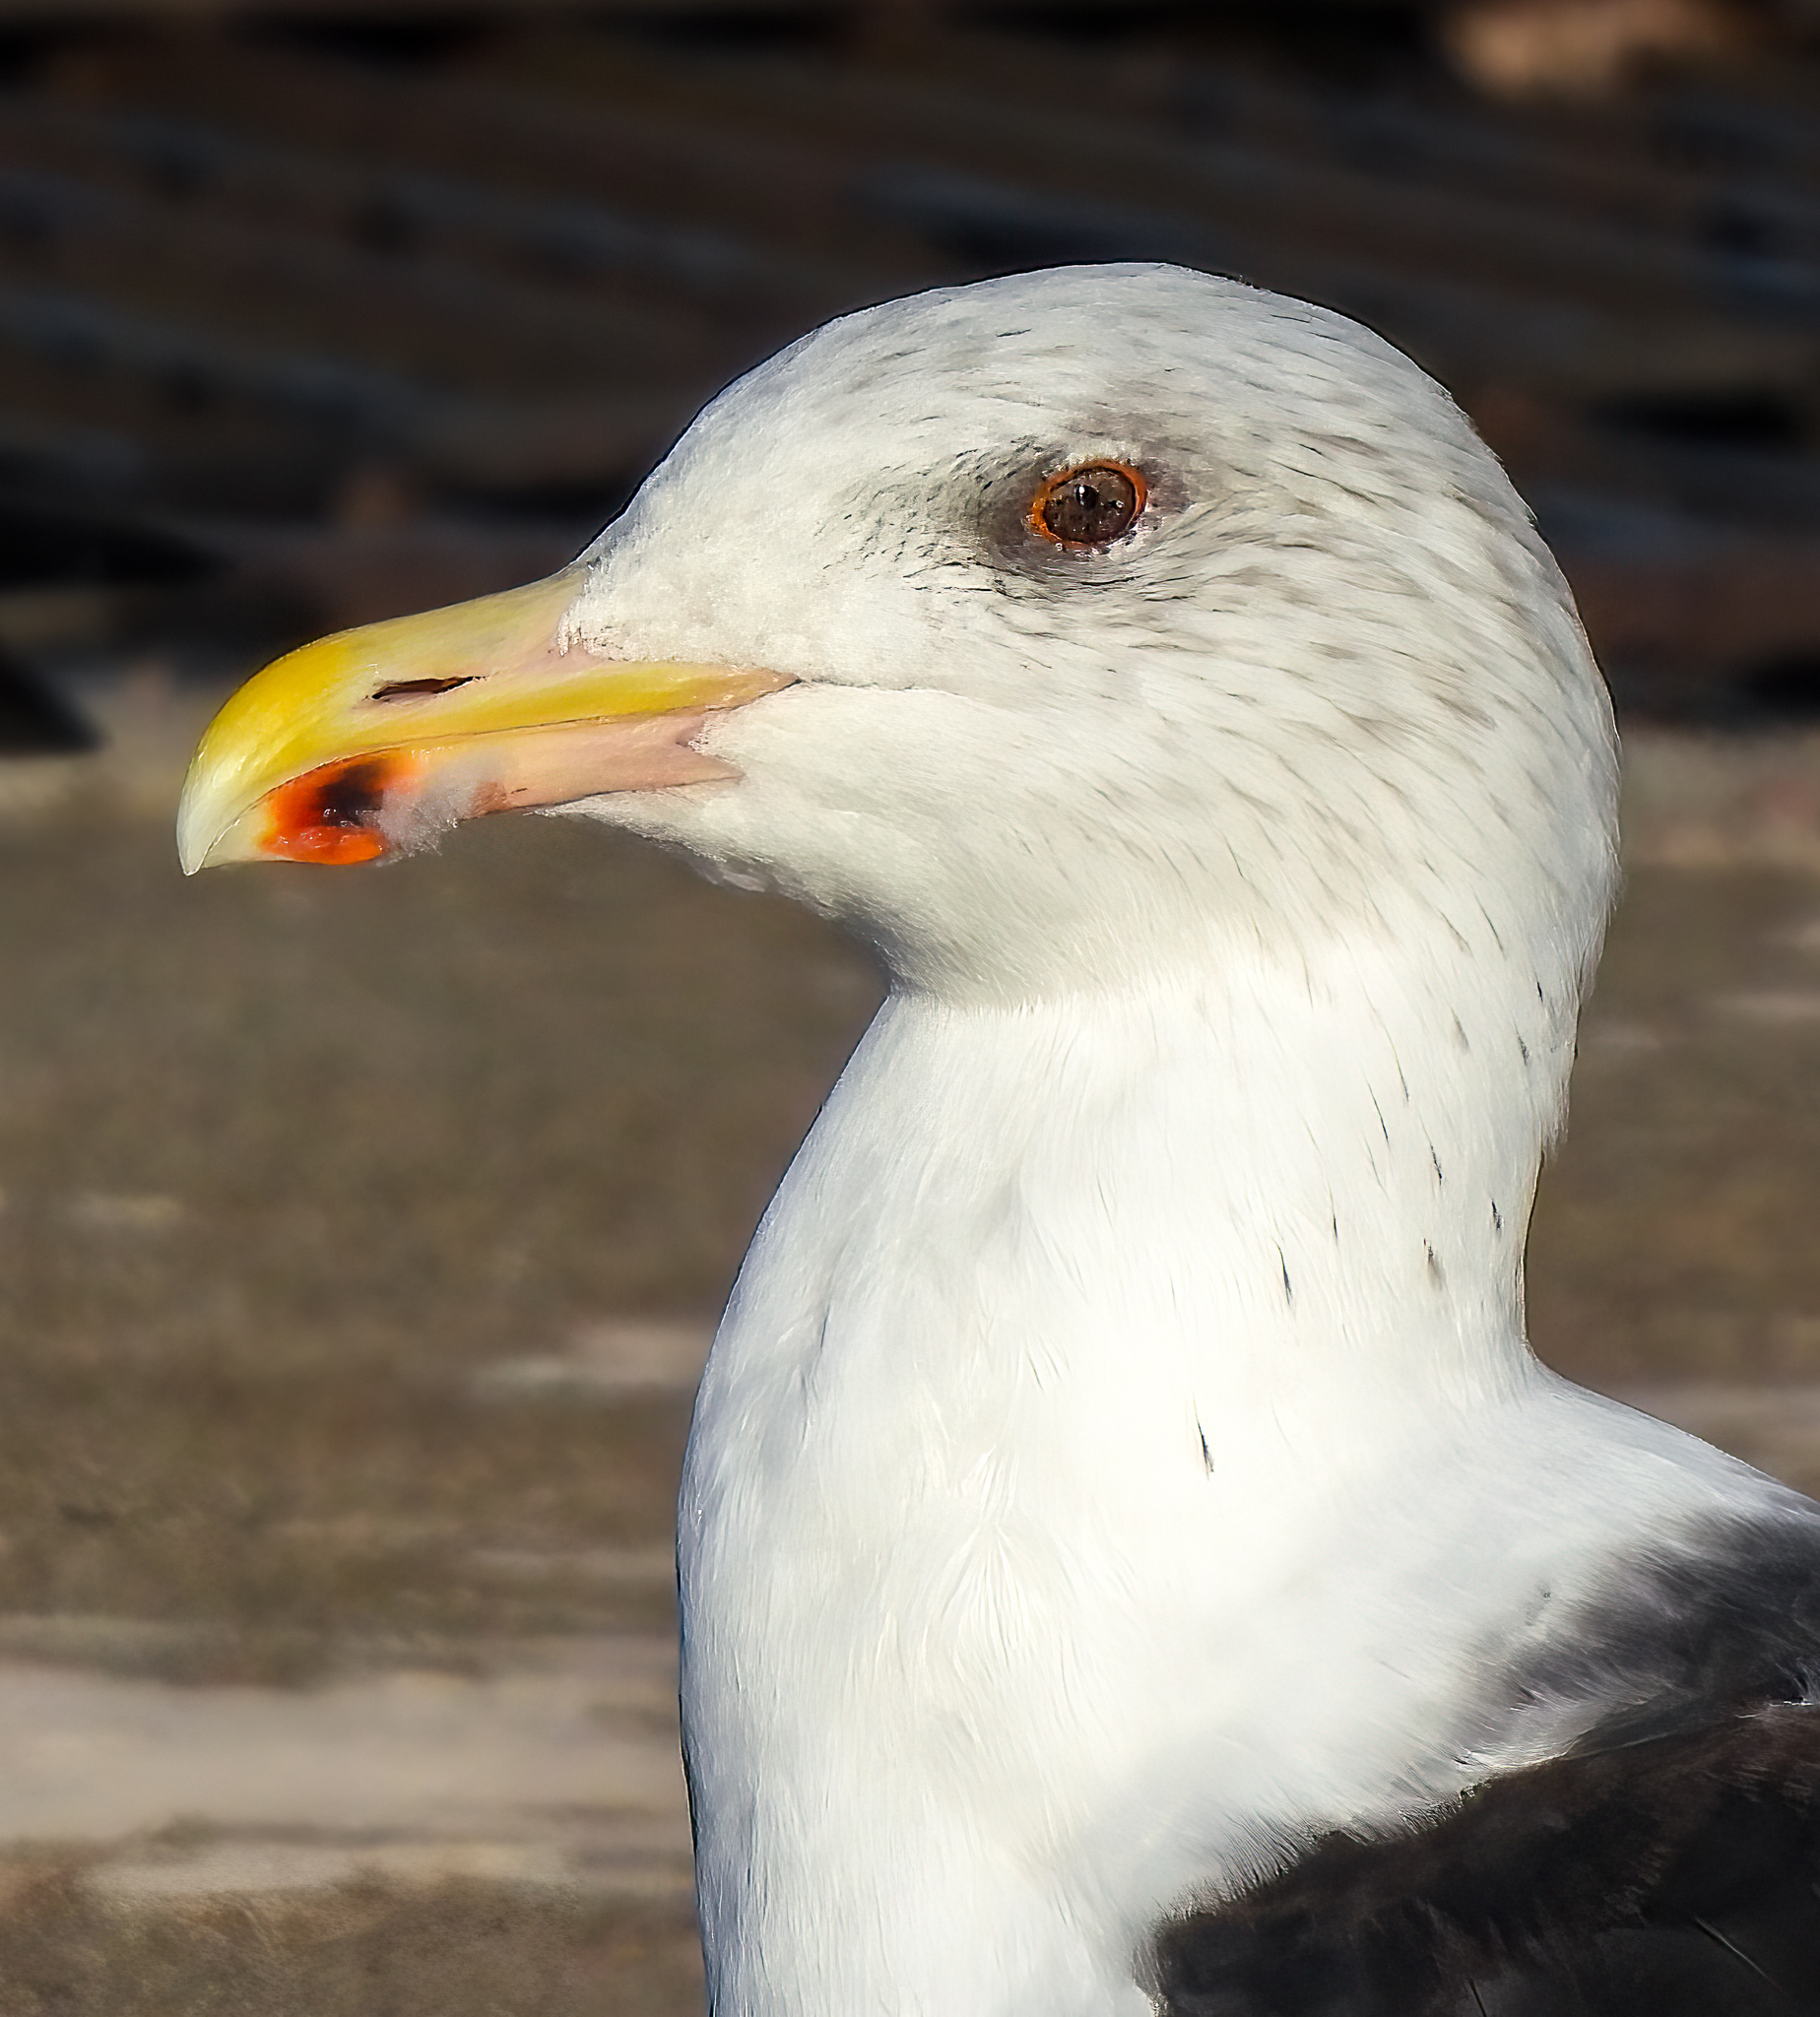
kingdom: Animalia
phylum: Chordata
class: Aves
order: Charadriiformes
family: Laridae
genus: Larus
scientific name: Larus marinus
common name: Great black-backed gull
